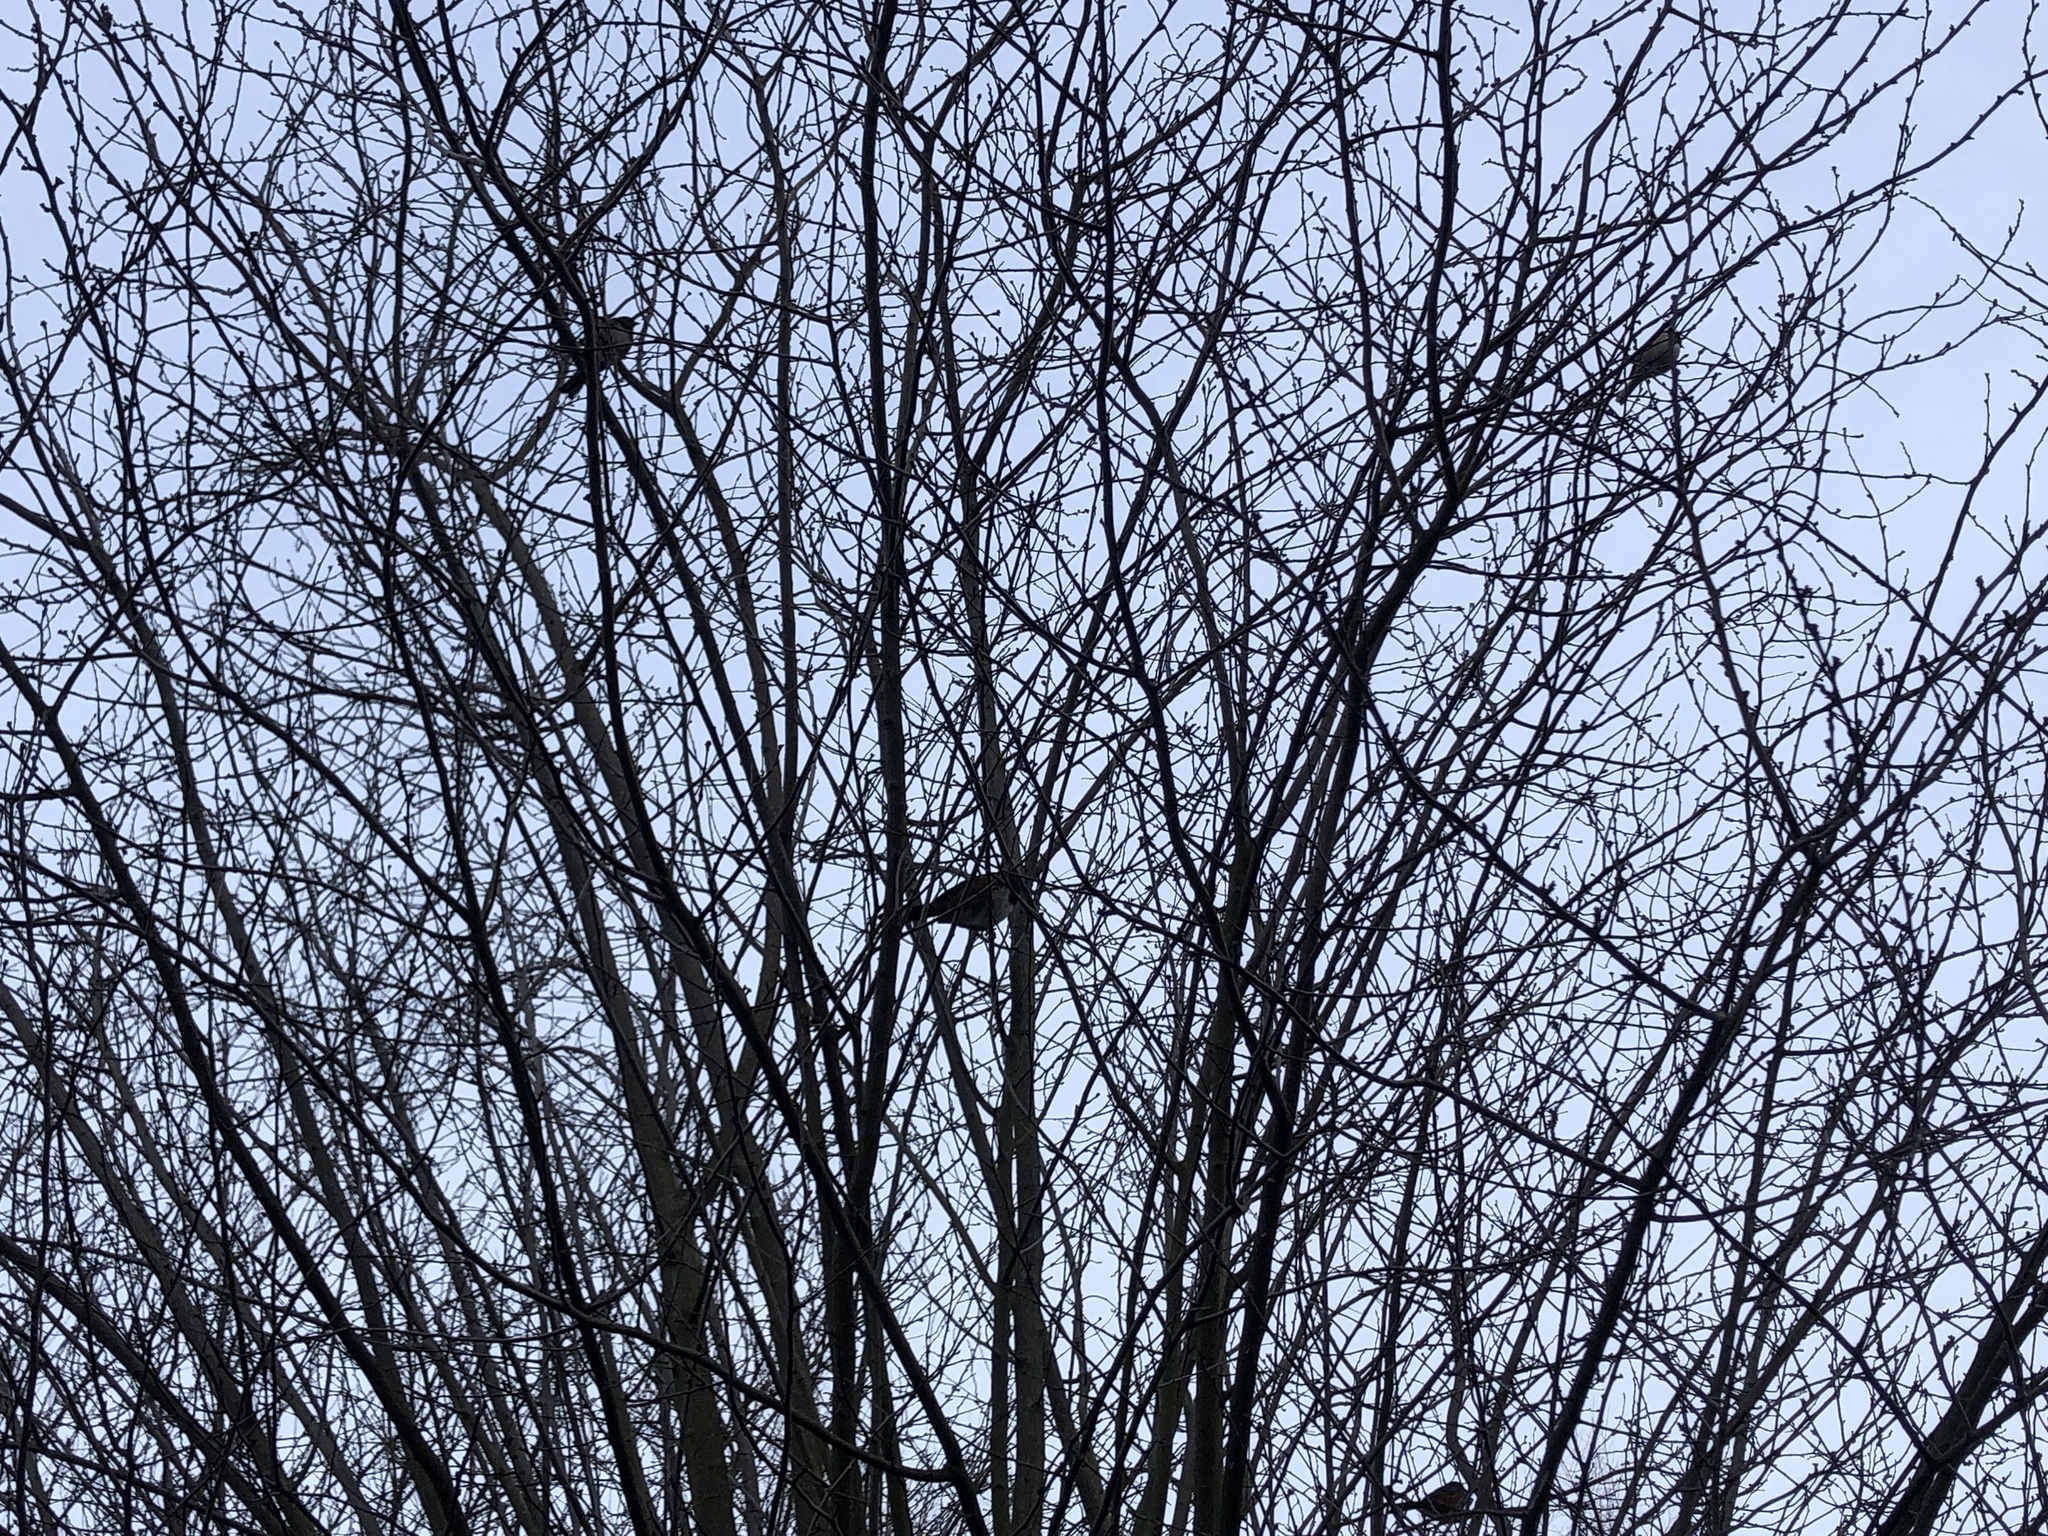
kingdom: Animalia
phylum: Chordata
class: Aves
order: Passeriformes
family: Passerellidae
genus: Pipilo
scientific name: Pipilo maculatus
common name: Spotted towhee
